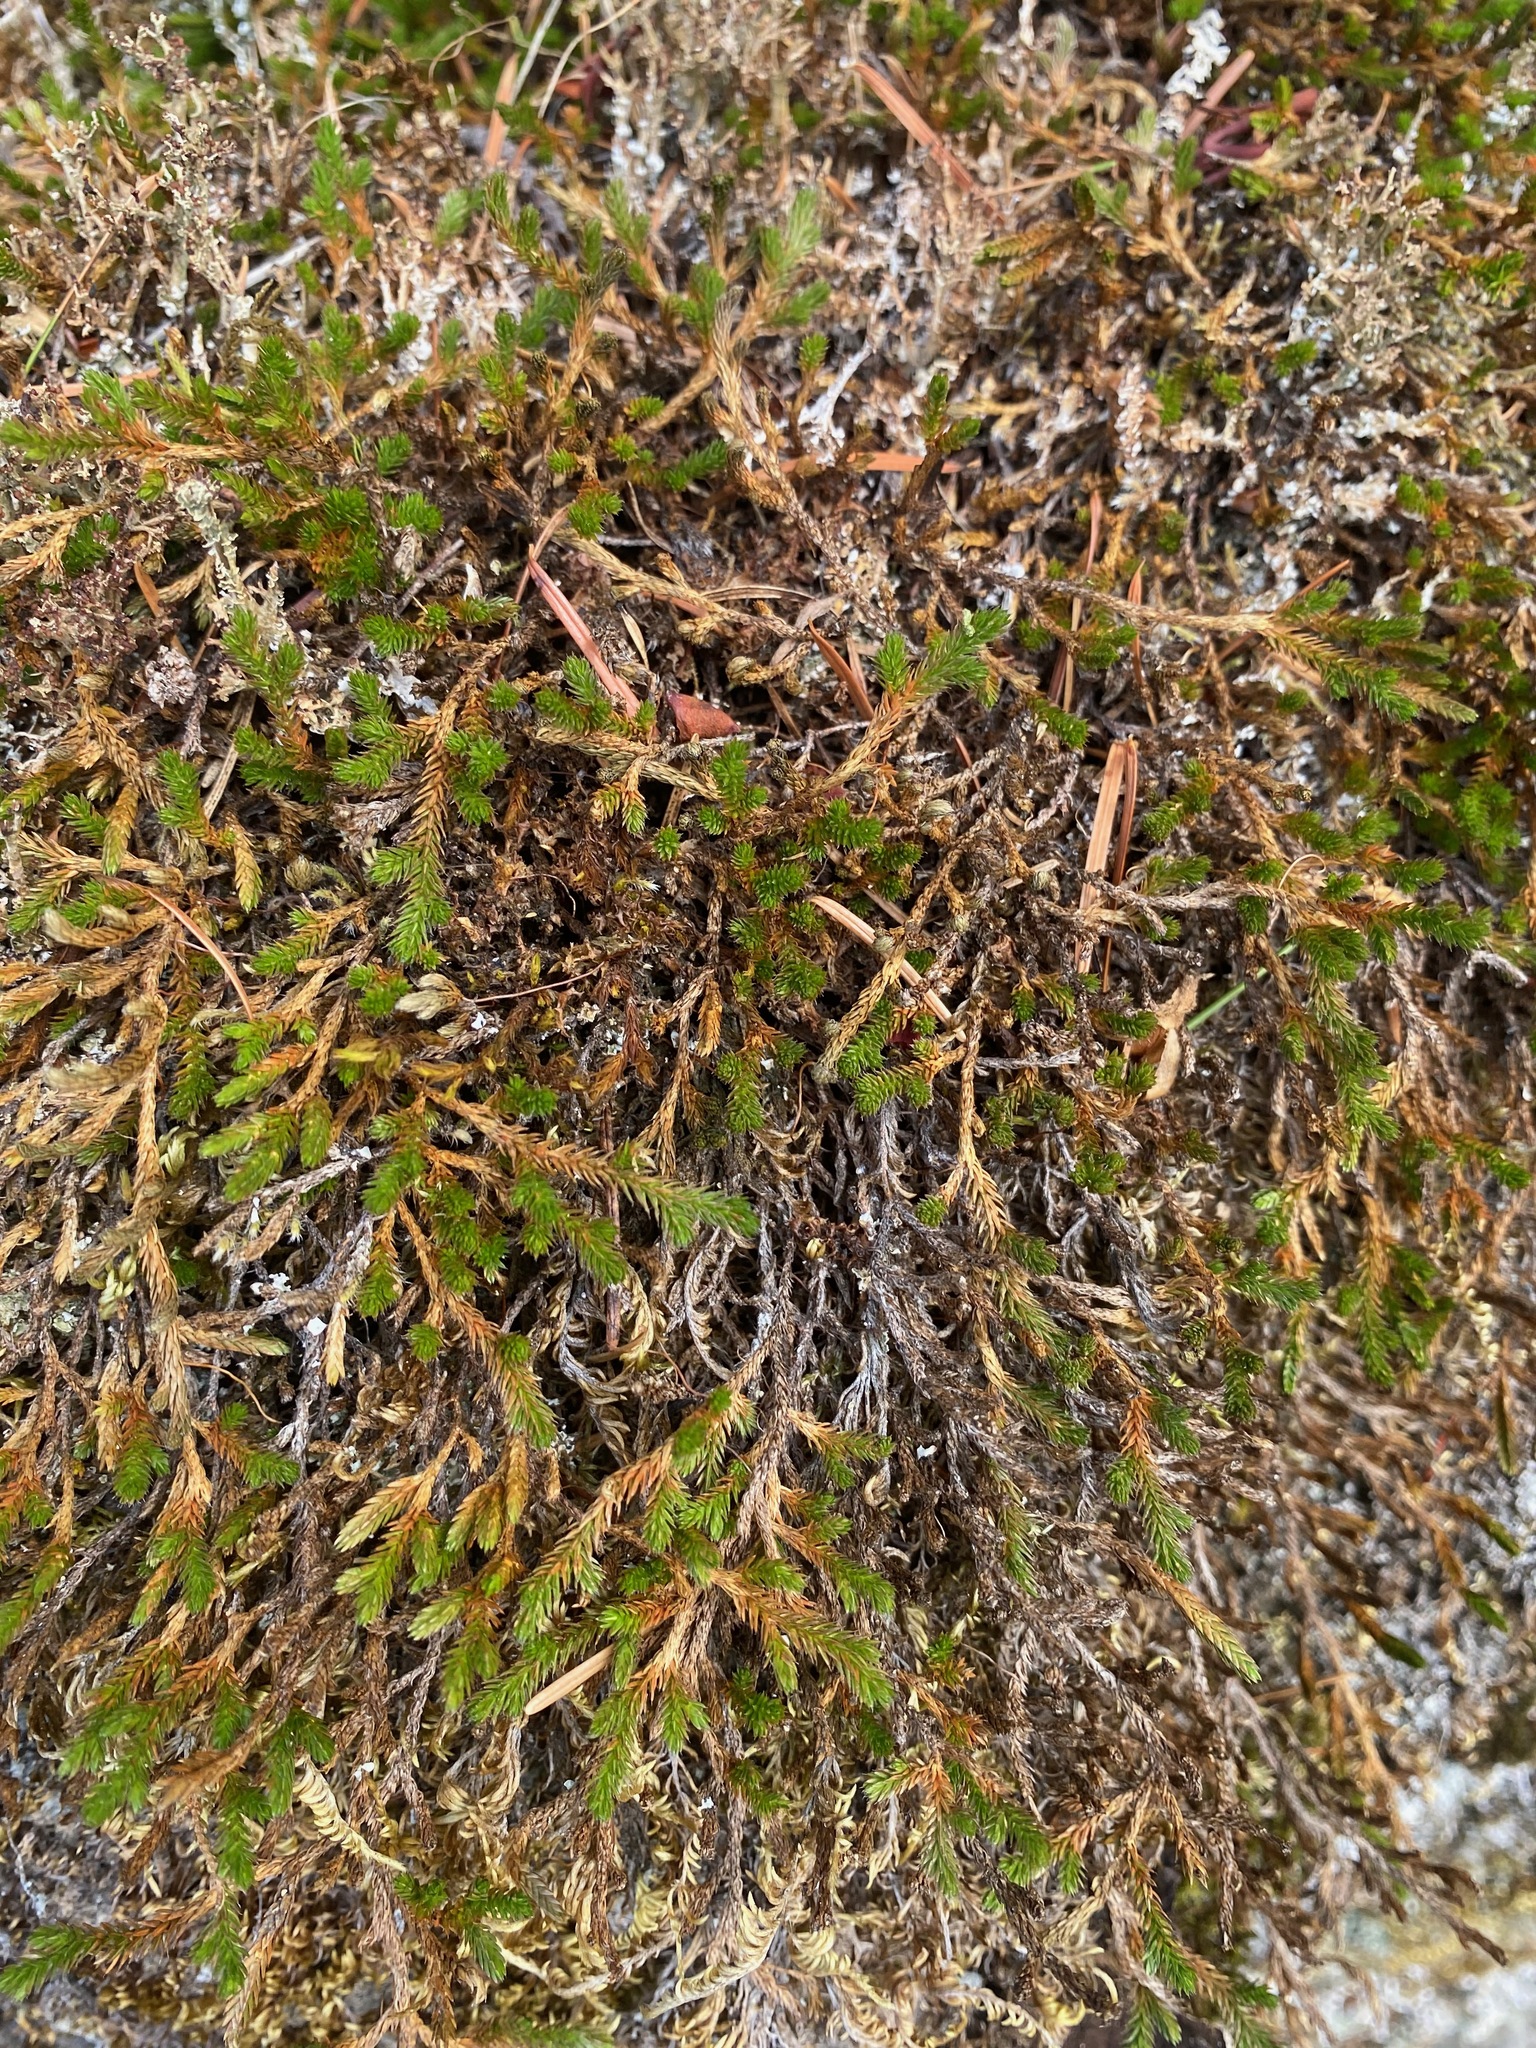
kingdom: Plantae
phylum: Tracheophyta
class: Lycopodiopsida
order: Selaginellales
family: Selaginellaceae
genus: Selaginella
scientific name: Selaginella wallacei
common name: Wallace's selaginella
